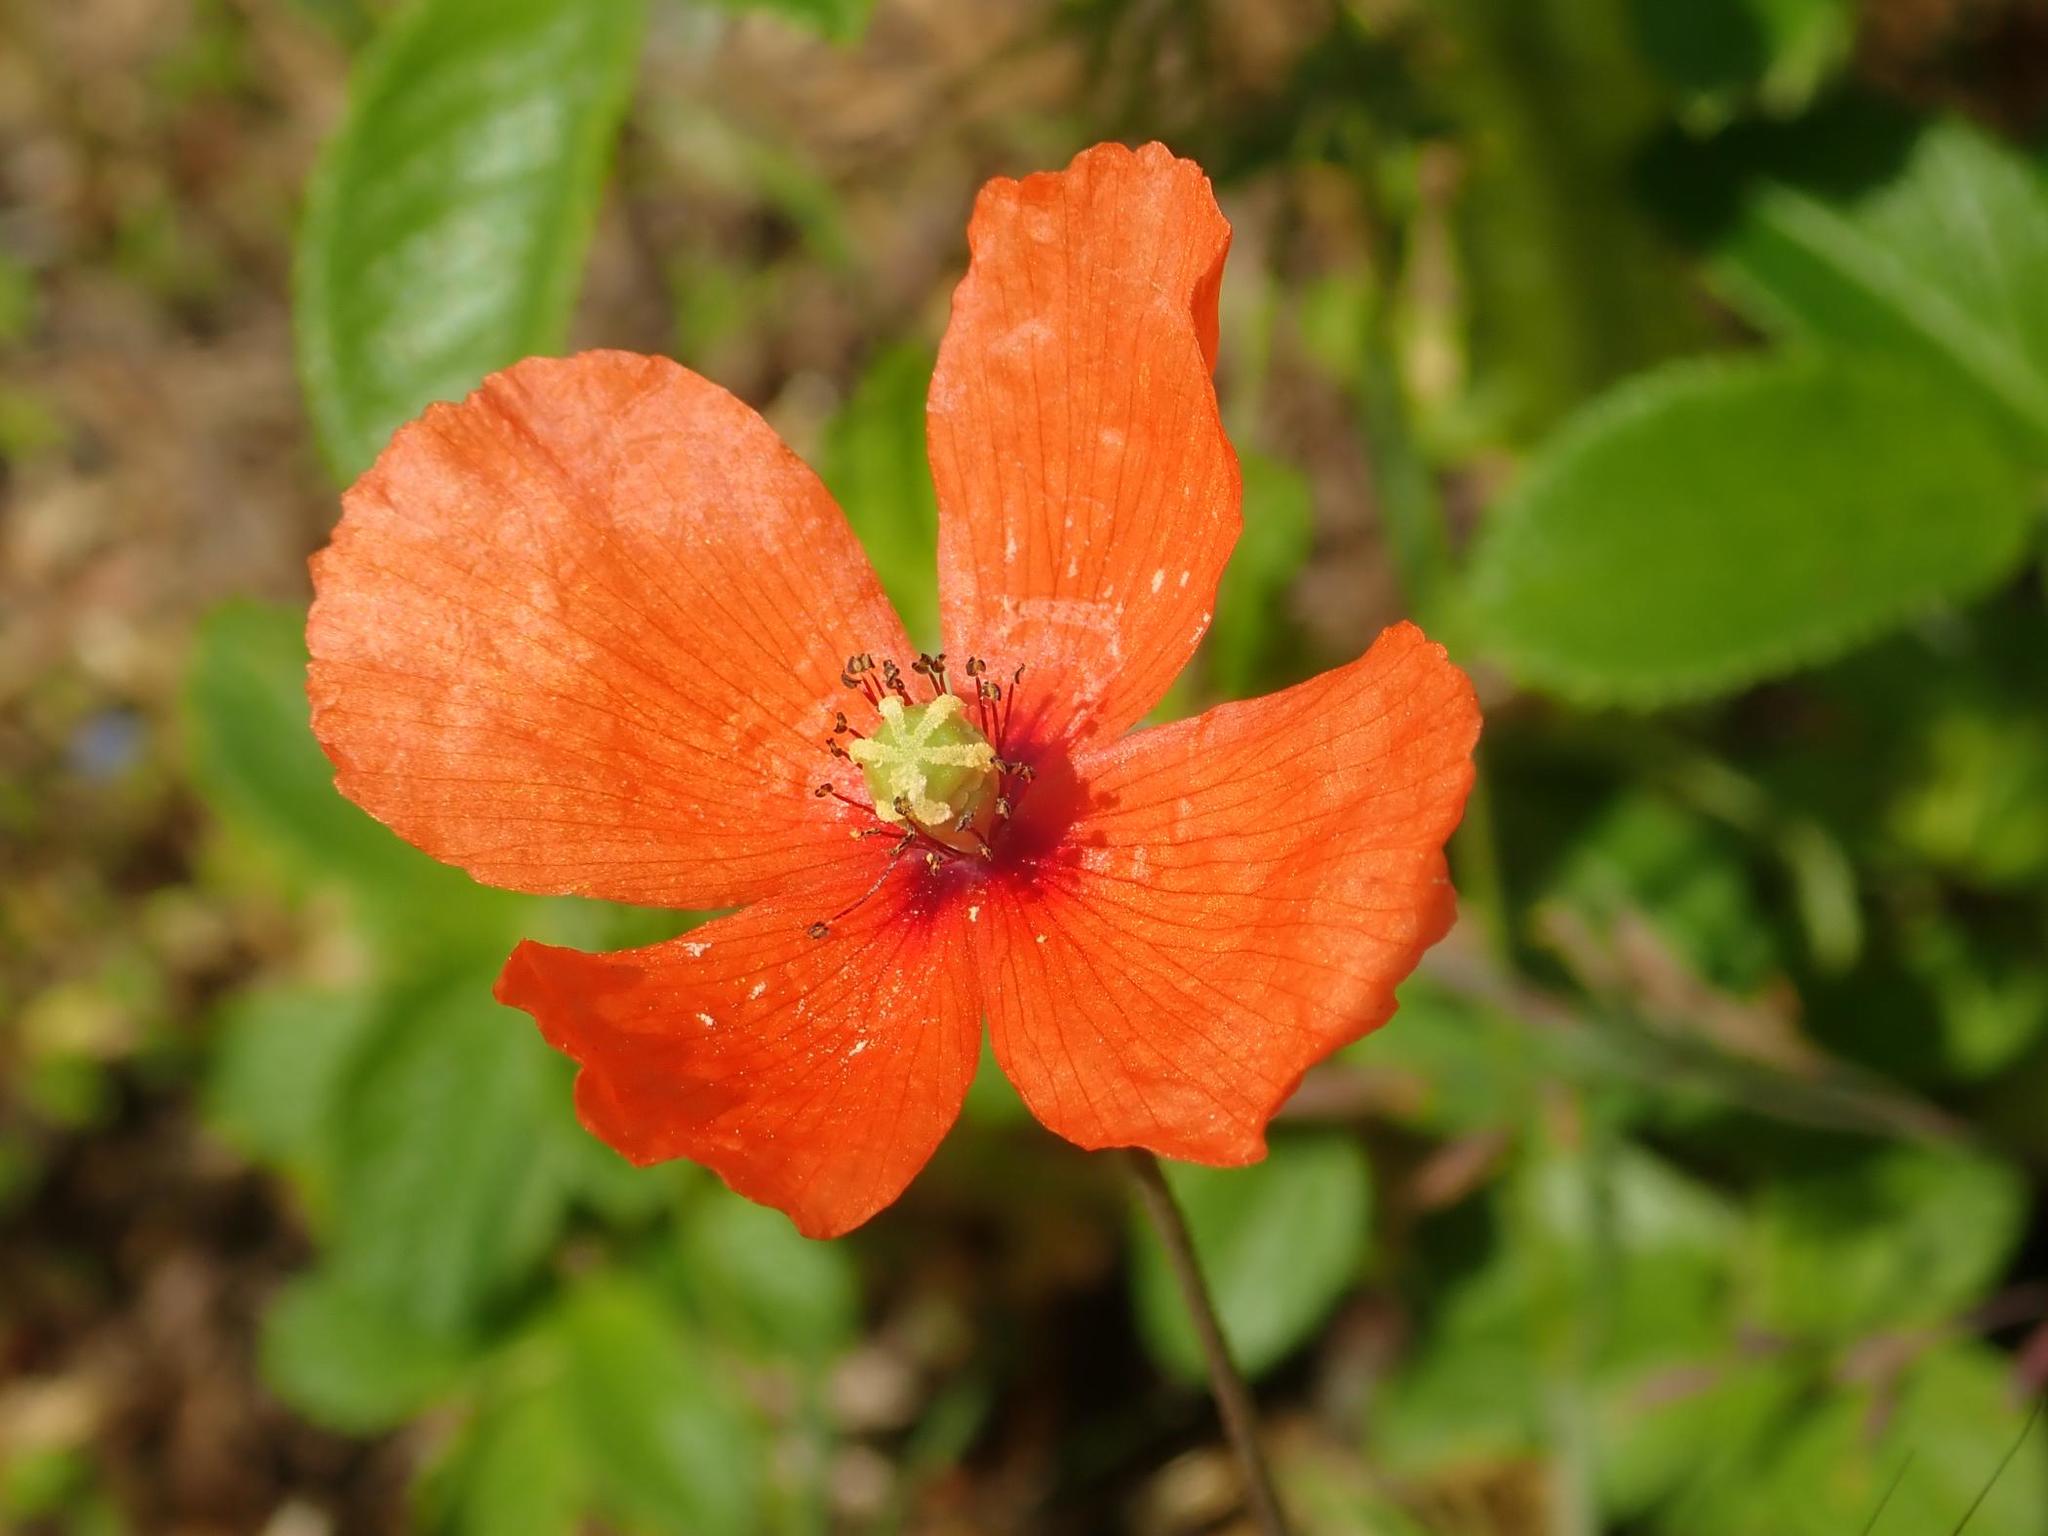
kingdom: Plantae
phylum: Tracheophyta
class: Magnoliopsida
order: Ranunculales
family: Papaveraceae
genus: Papaver
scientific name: Papaver dubium
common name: Long-headed poppy
